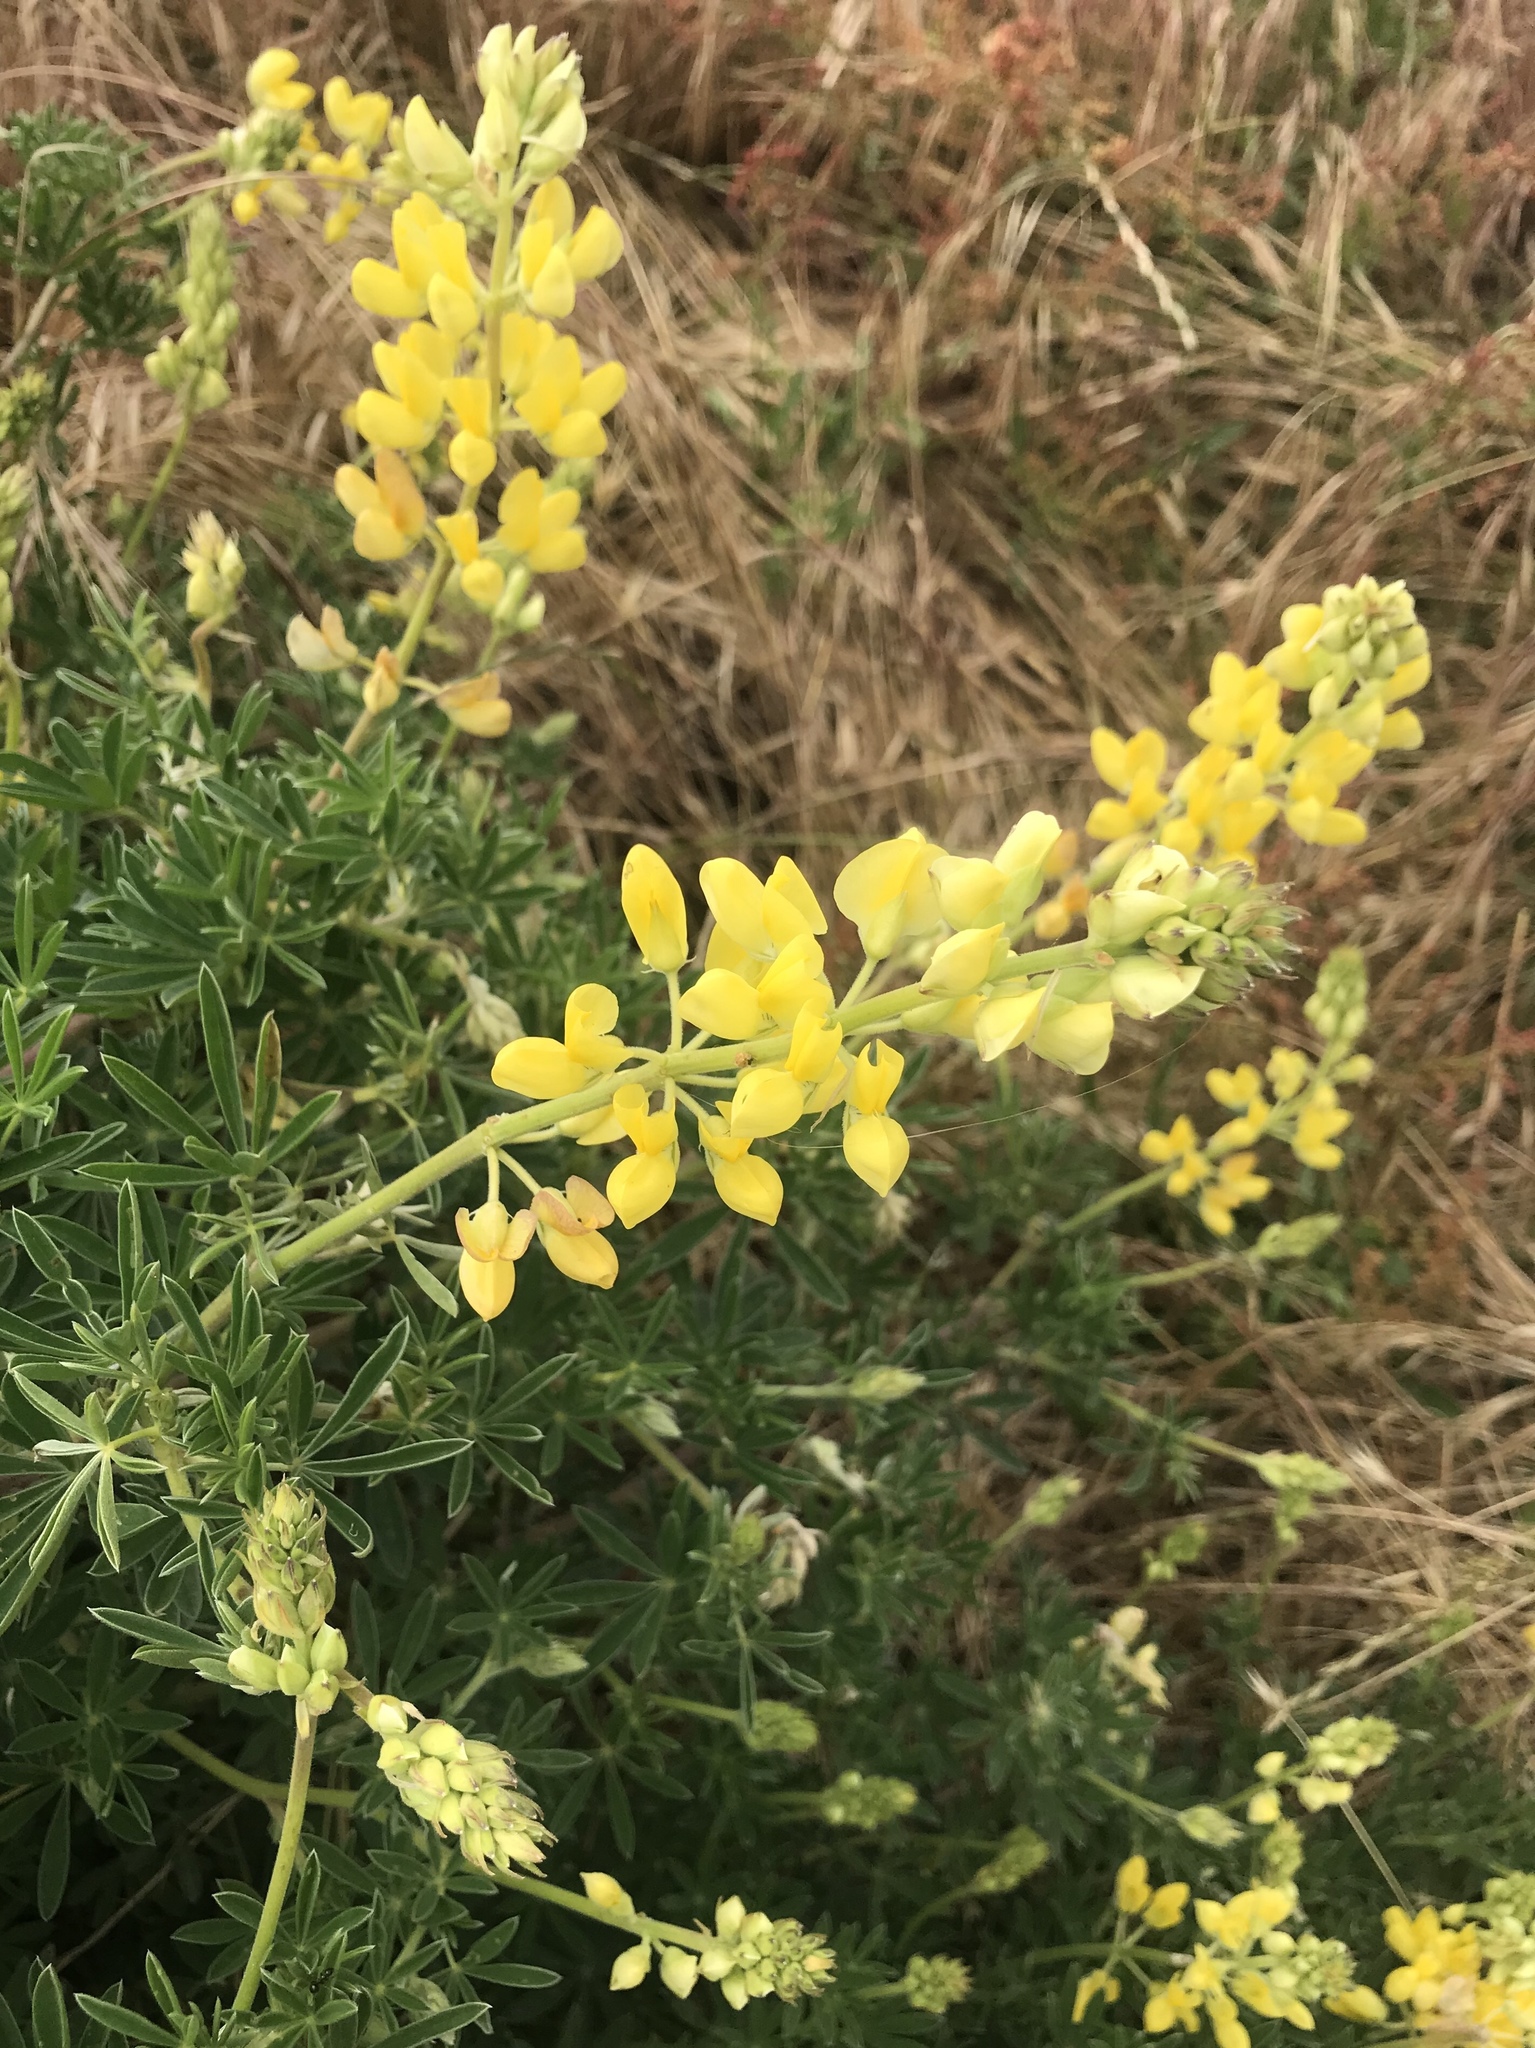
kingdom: Plantae
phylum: Tracheophyta
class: Magnoliopsida
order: Fabales
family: Fabaceae
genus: Lupinus
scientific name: Lupinus arboreus
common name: Yellow bush lupine
